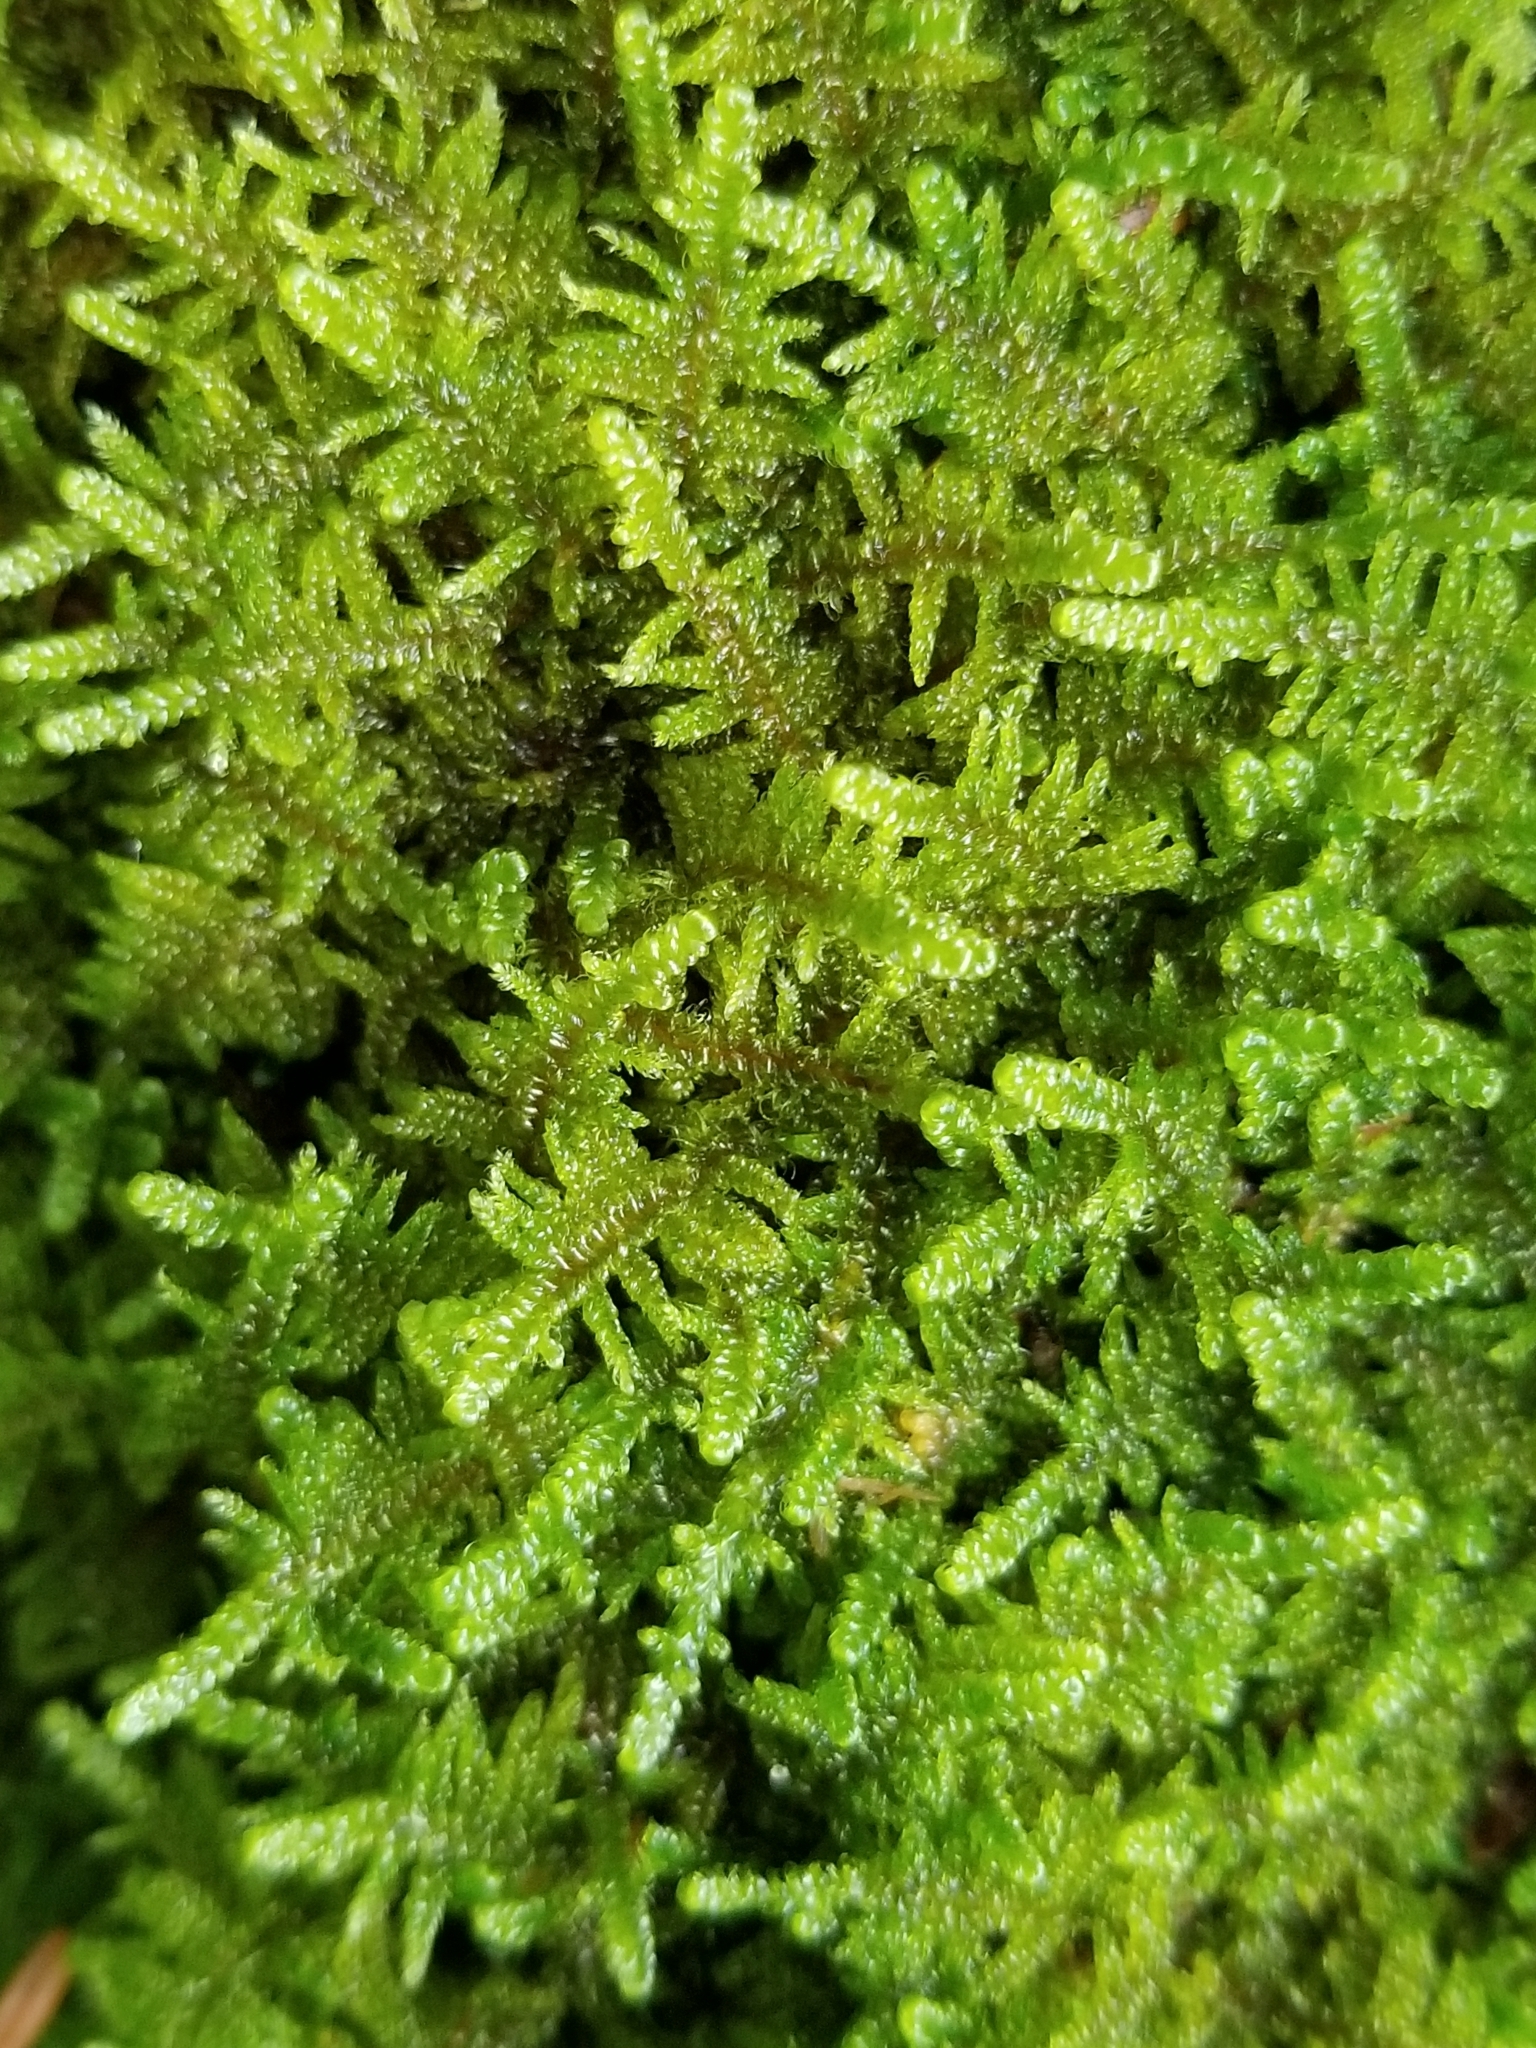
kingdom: Plantae
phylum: Bryophyta
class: Bryopsida
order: Hypnales
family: Callicladiaceae
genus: Callicladium
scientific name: Callicladium imponens
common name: Brocade moss
